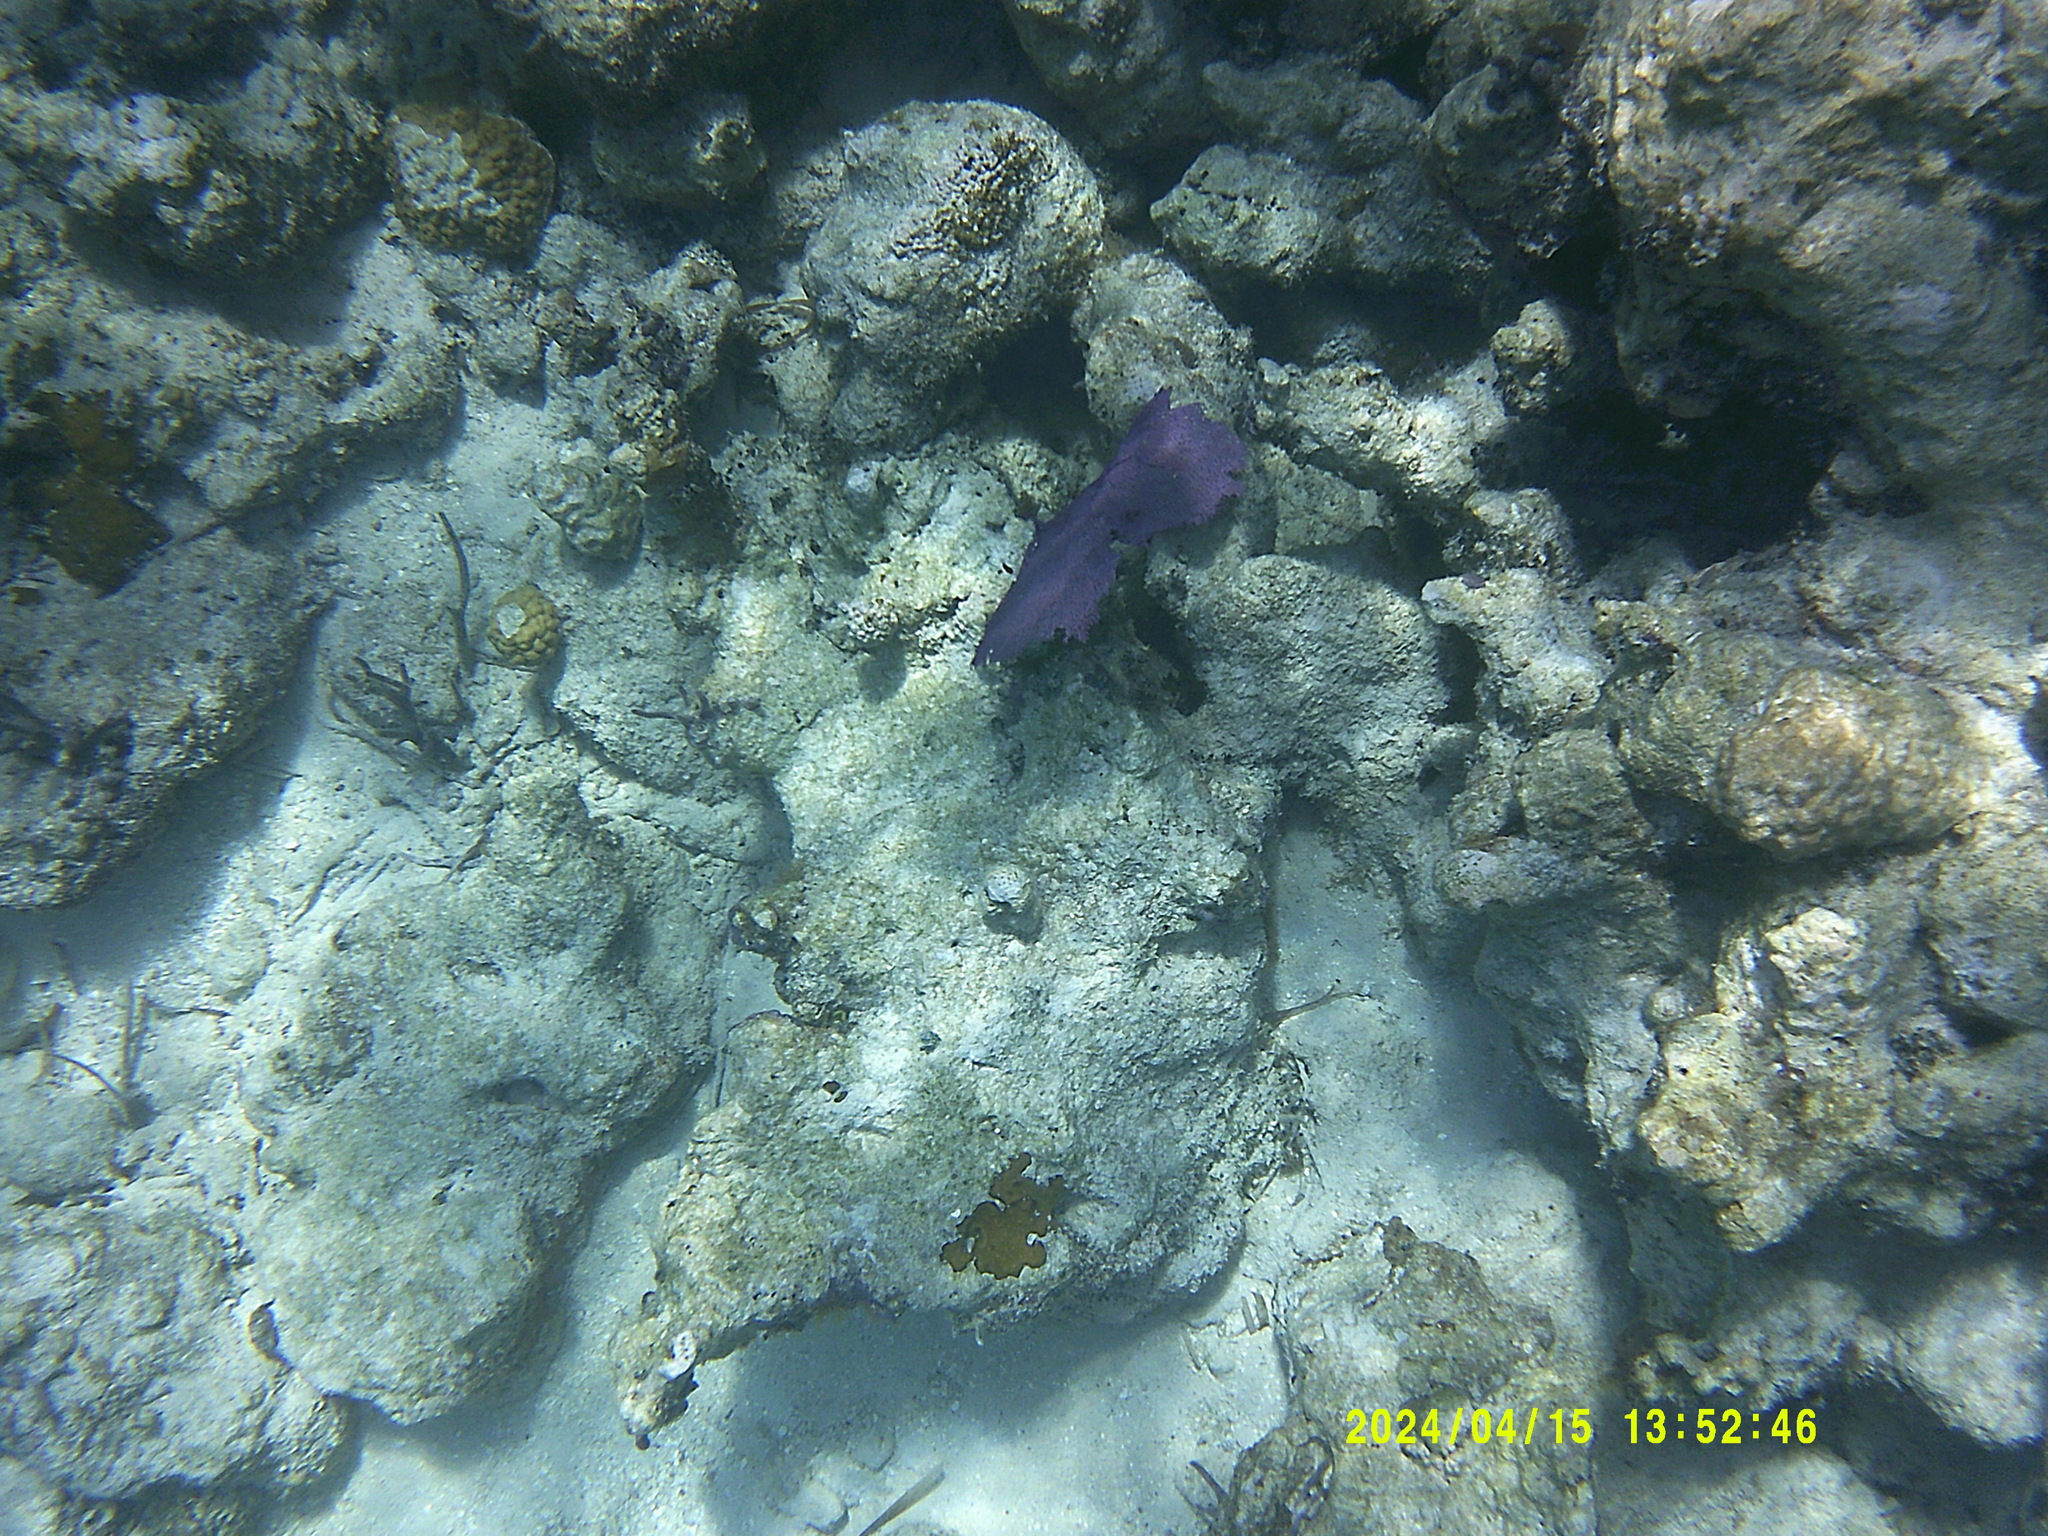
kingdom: Animalia
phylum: Cnidaria
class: Anthozoa
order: Malacalcyonacea
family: Gorgoniidae
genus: Gorgonia
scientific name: Gorgonia ventalina
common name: Common sea fan
